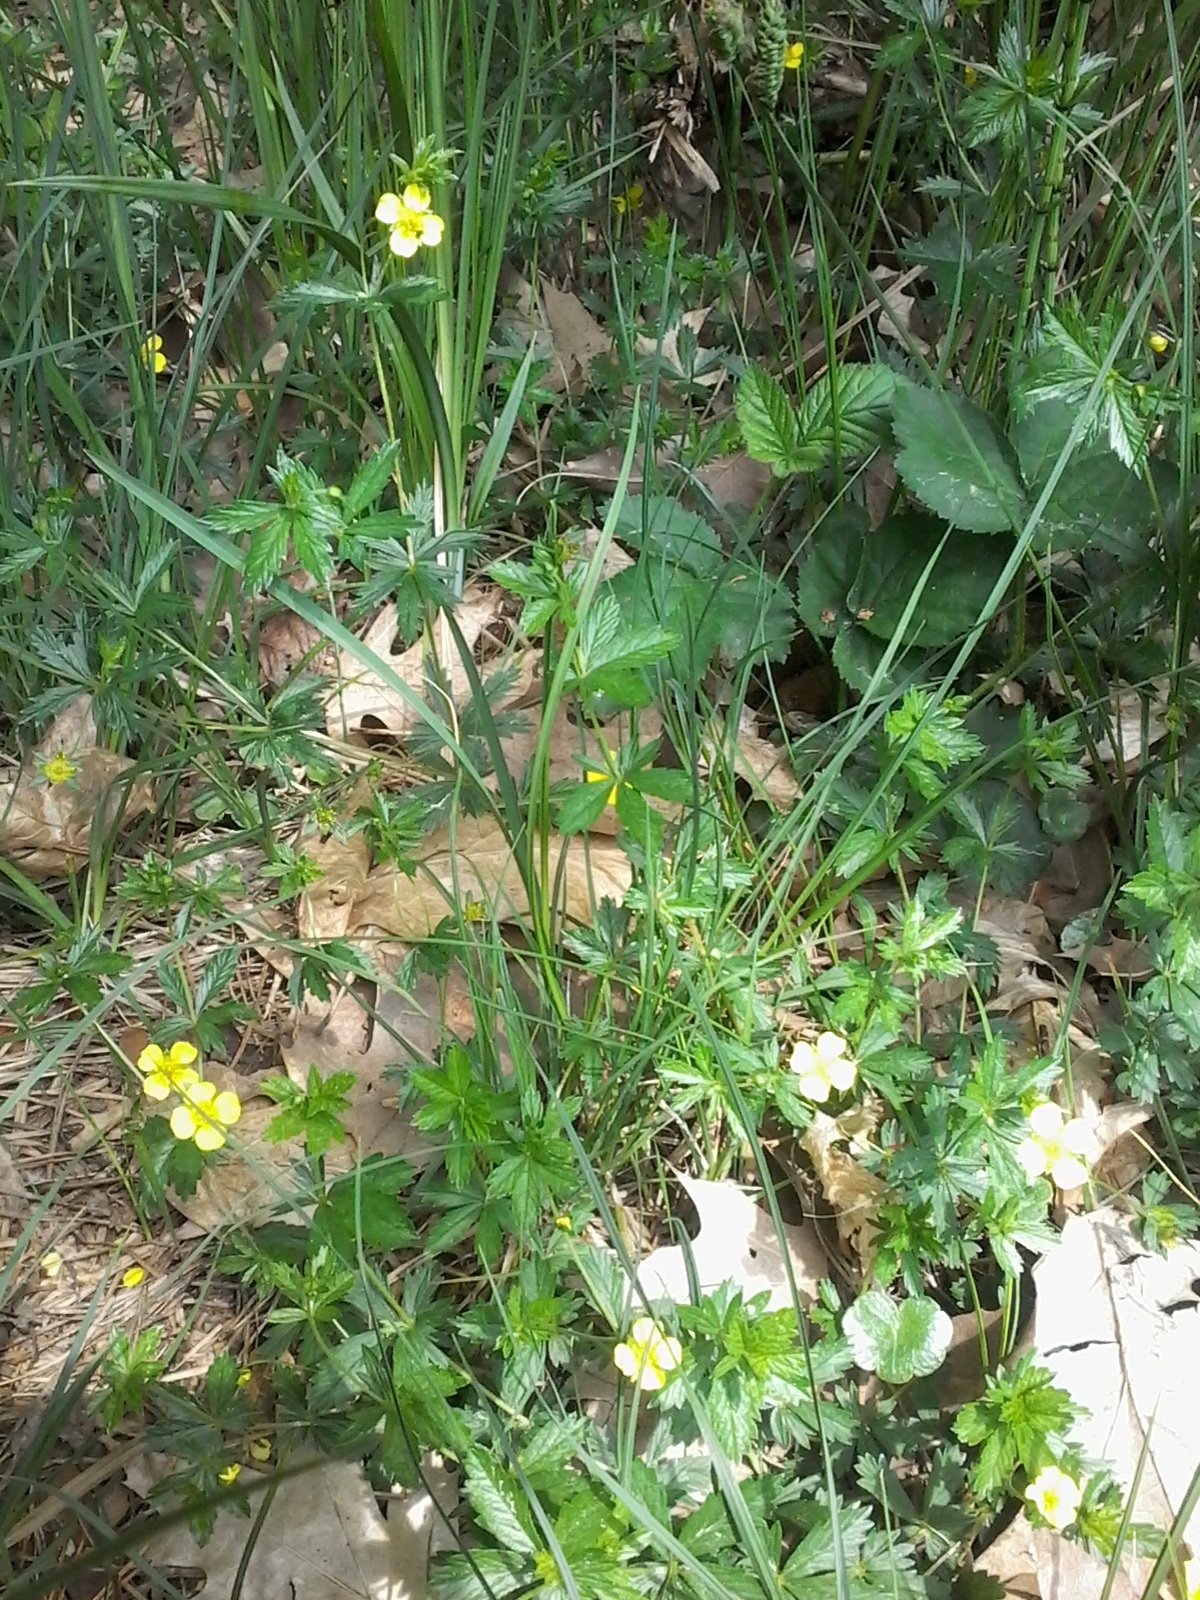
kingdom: Plantae
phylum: Tracheophyta
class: Magnoliopsida
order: Rosales
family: Rosaceae
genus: Potentilla
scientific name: Potentilla erecta
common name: Tormentil
